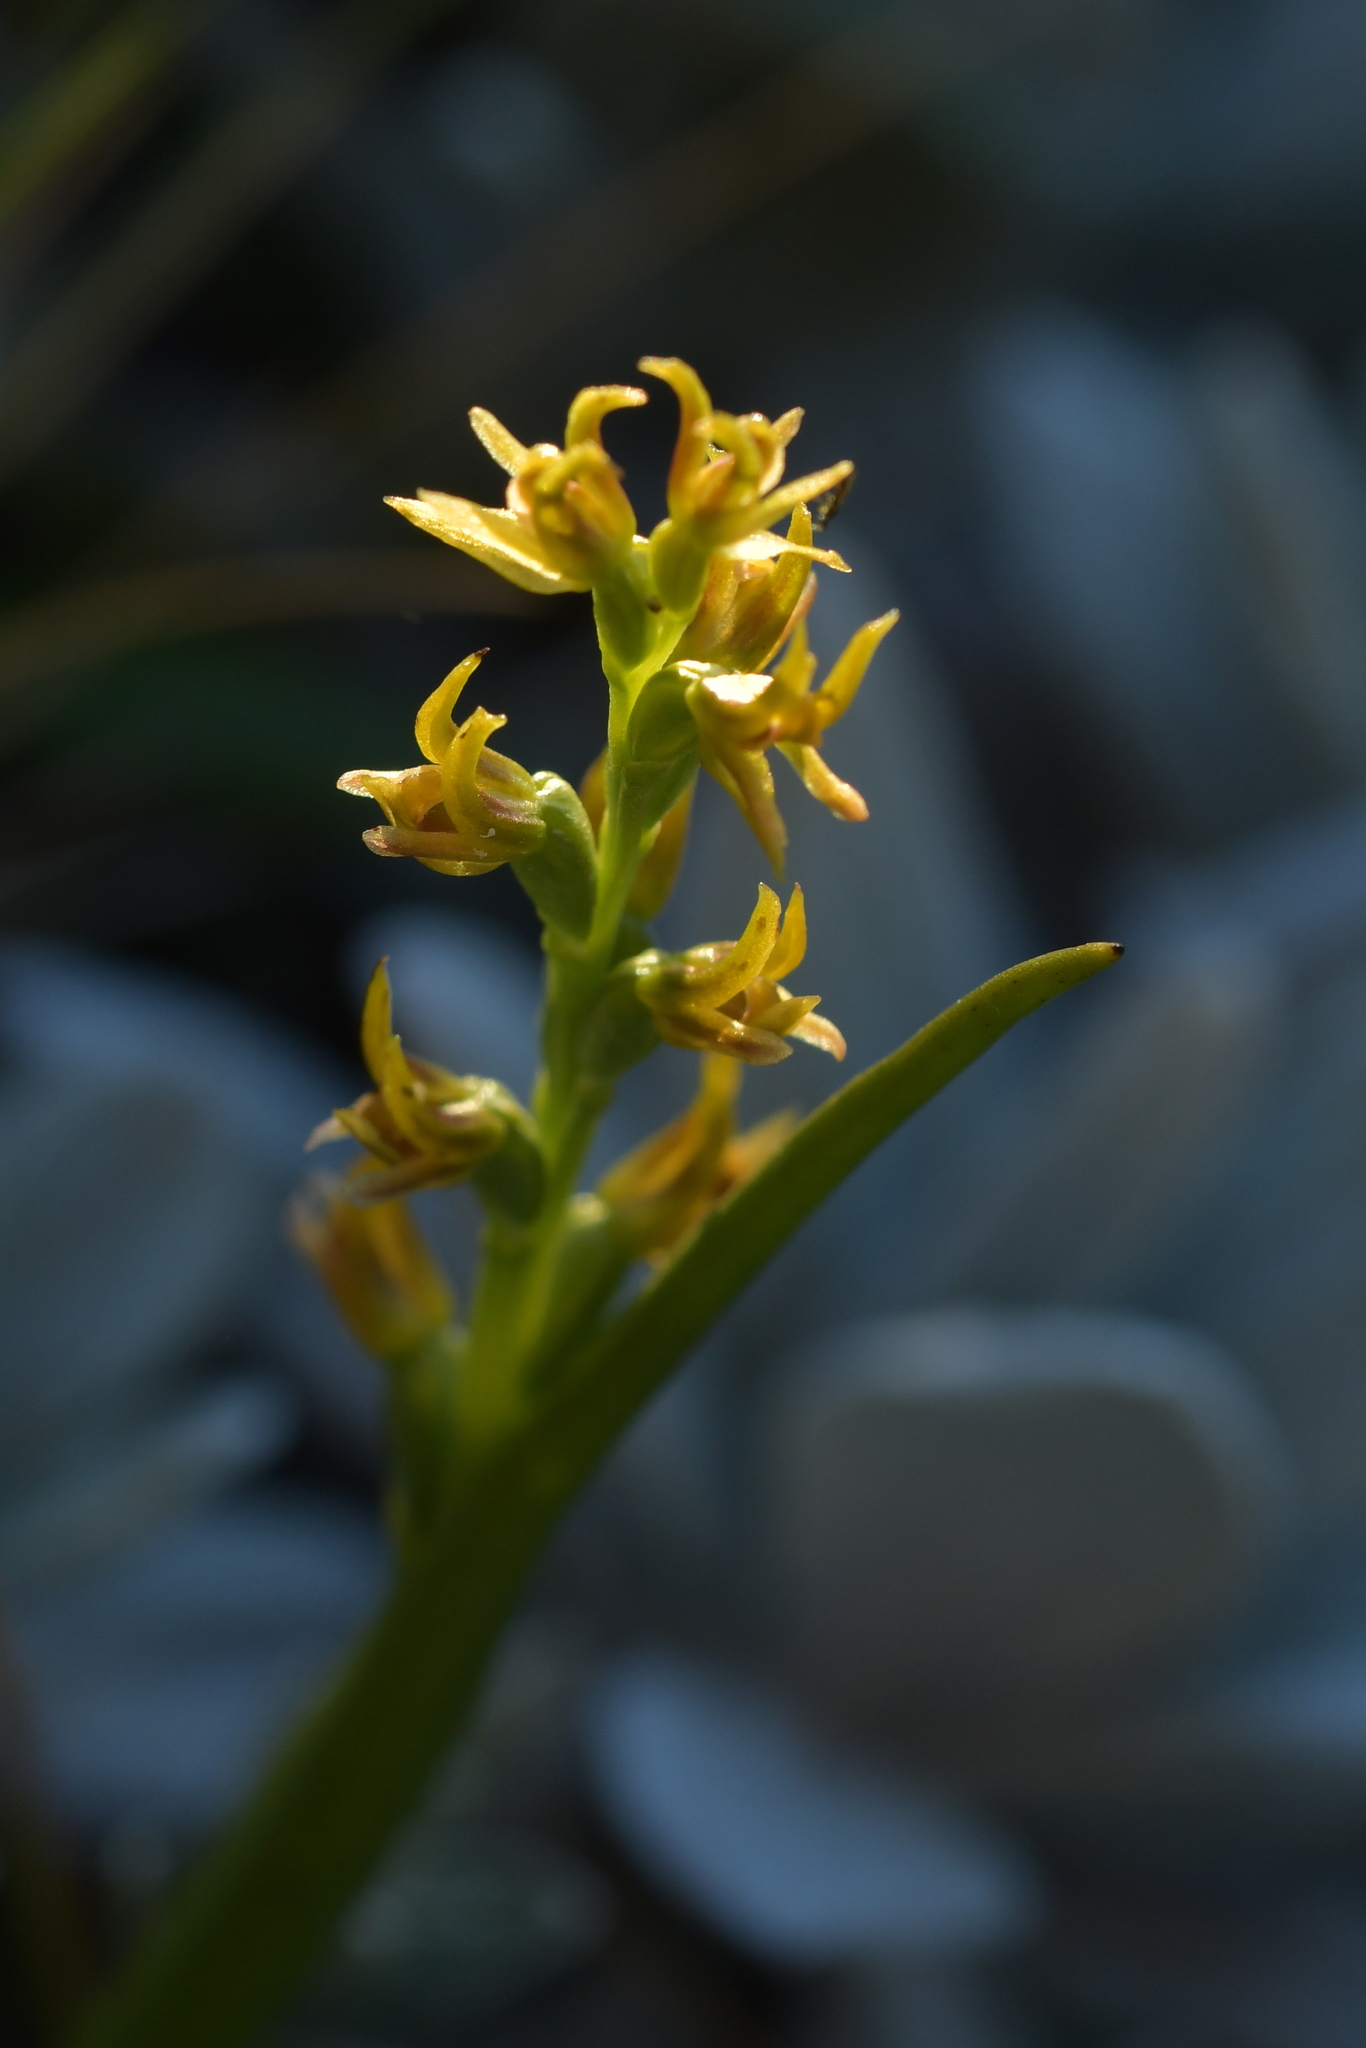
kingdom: Plantae
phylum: Tracheophyta
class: Liliopsida
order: Asparagales
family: Orchidaceae
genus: Prasophyllum
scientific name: Prasophyllum colensoi
